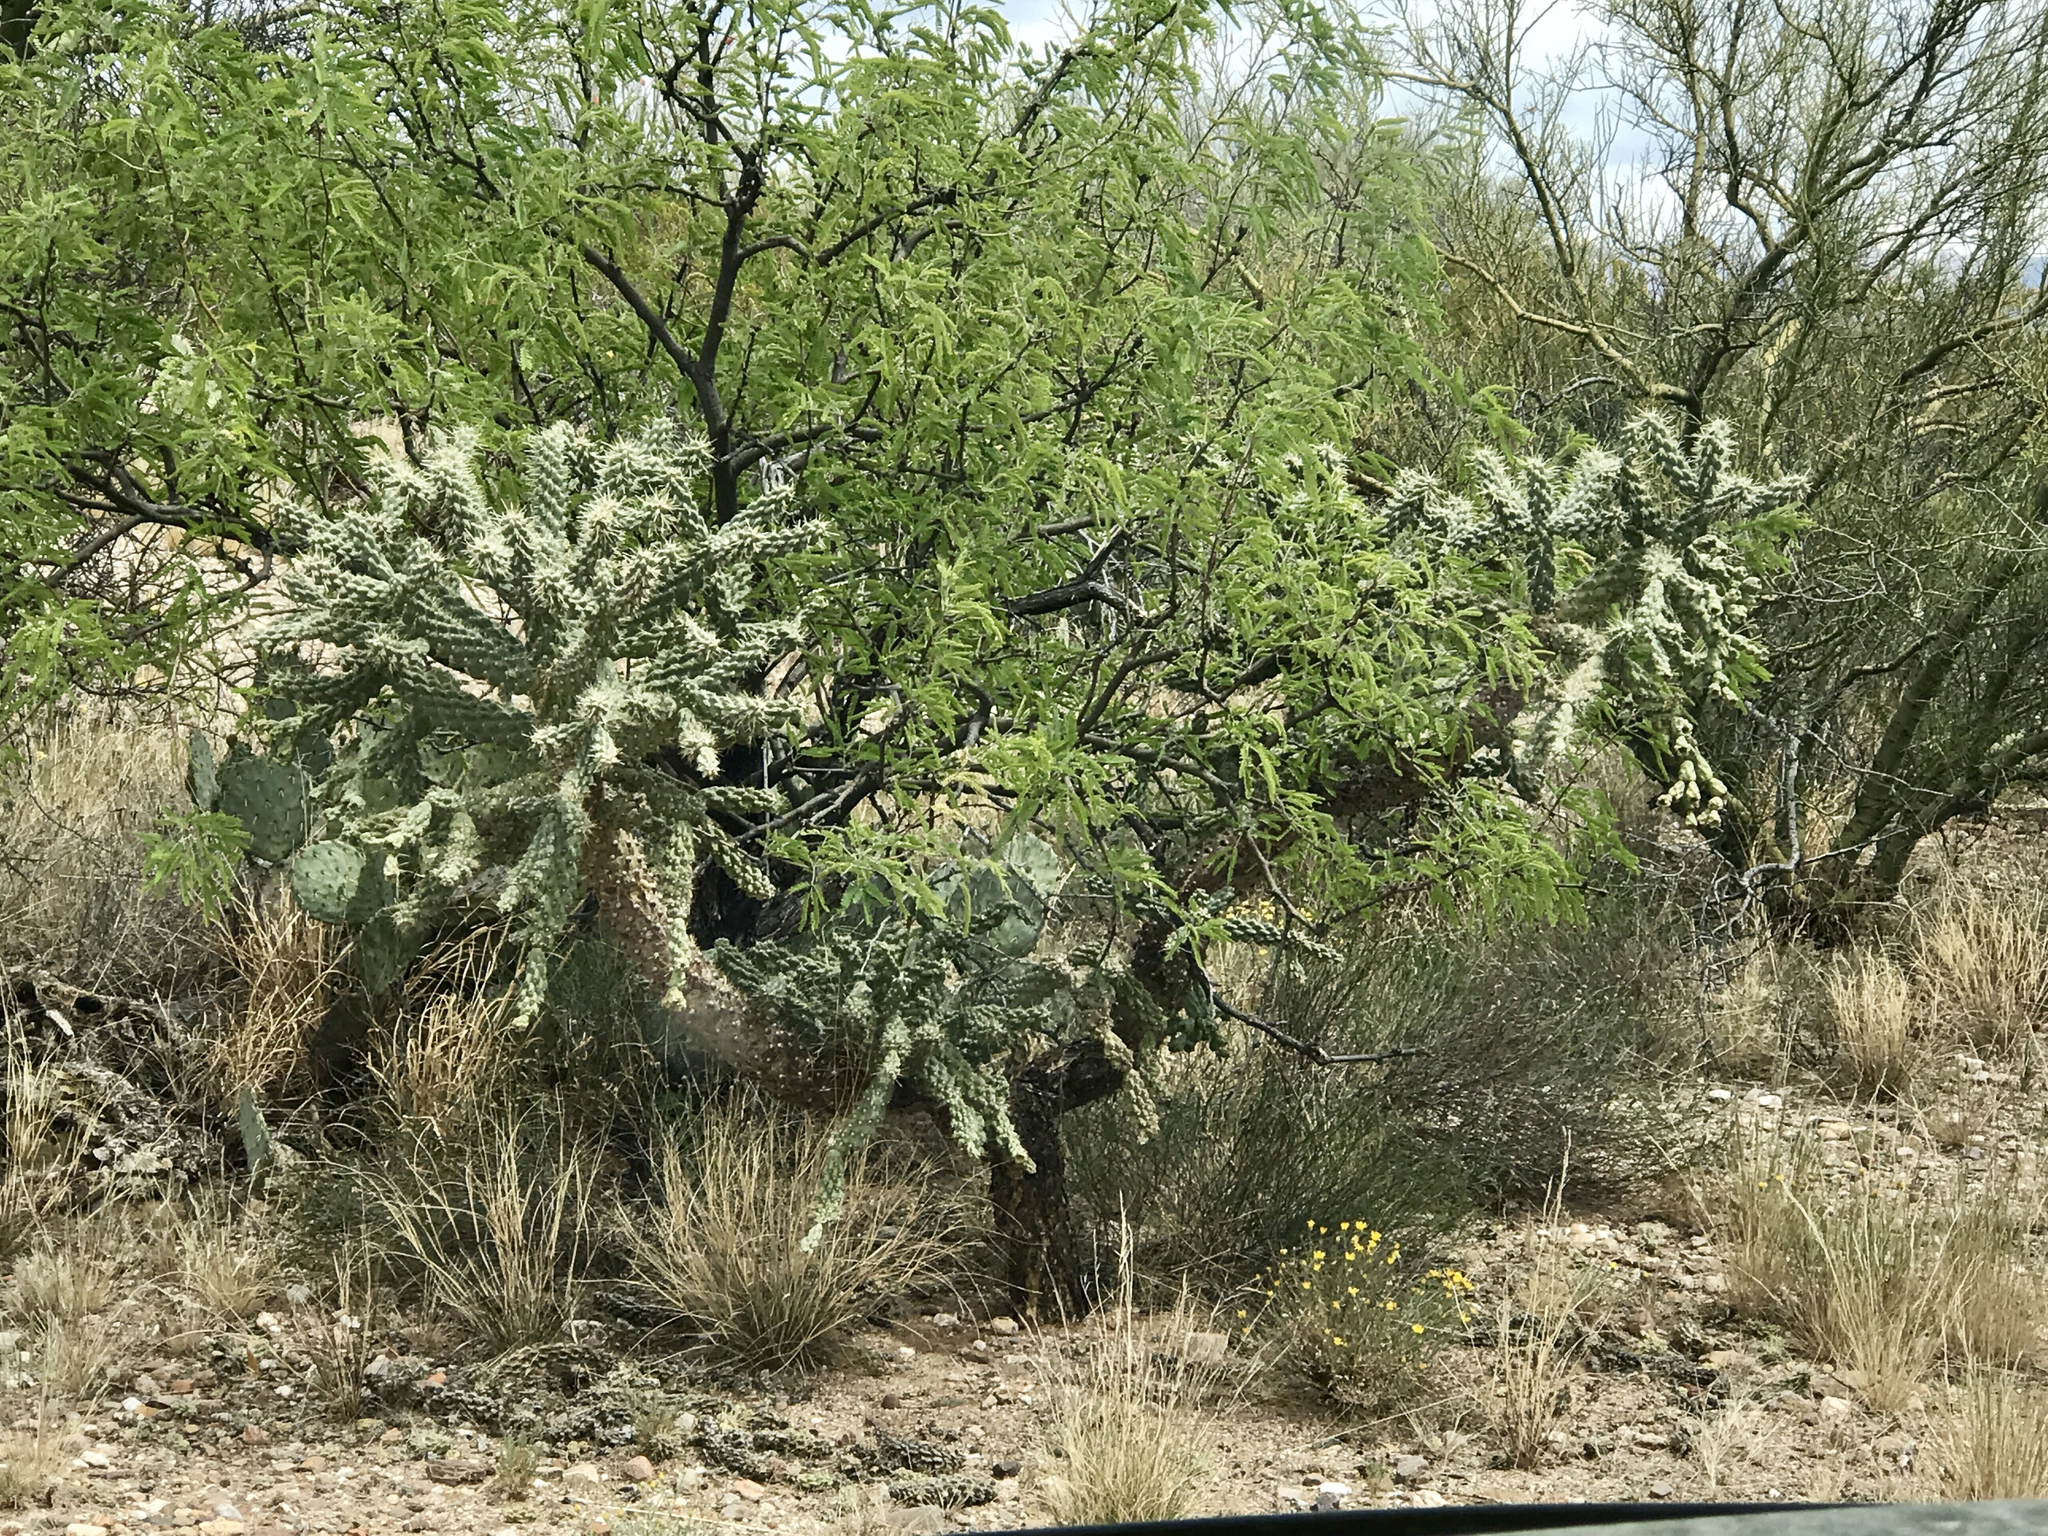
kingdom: Plantae
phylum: Tracheophyta
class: Magnoliopsida
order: Caryophyllales
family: Cactaceae
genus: Cylindropuntia
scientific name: Cylindropuntia fulgida
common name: Jumping cholla
